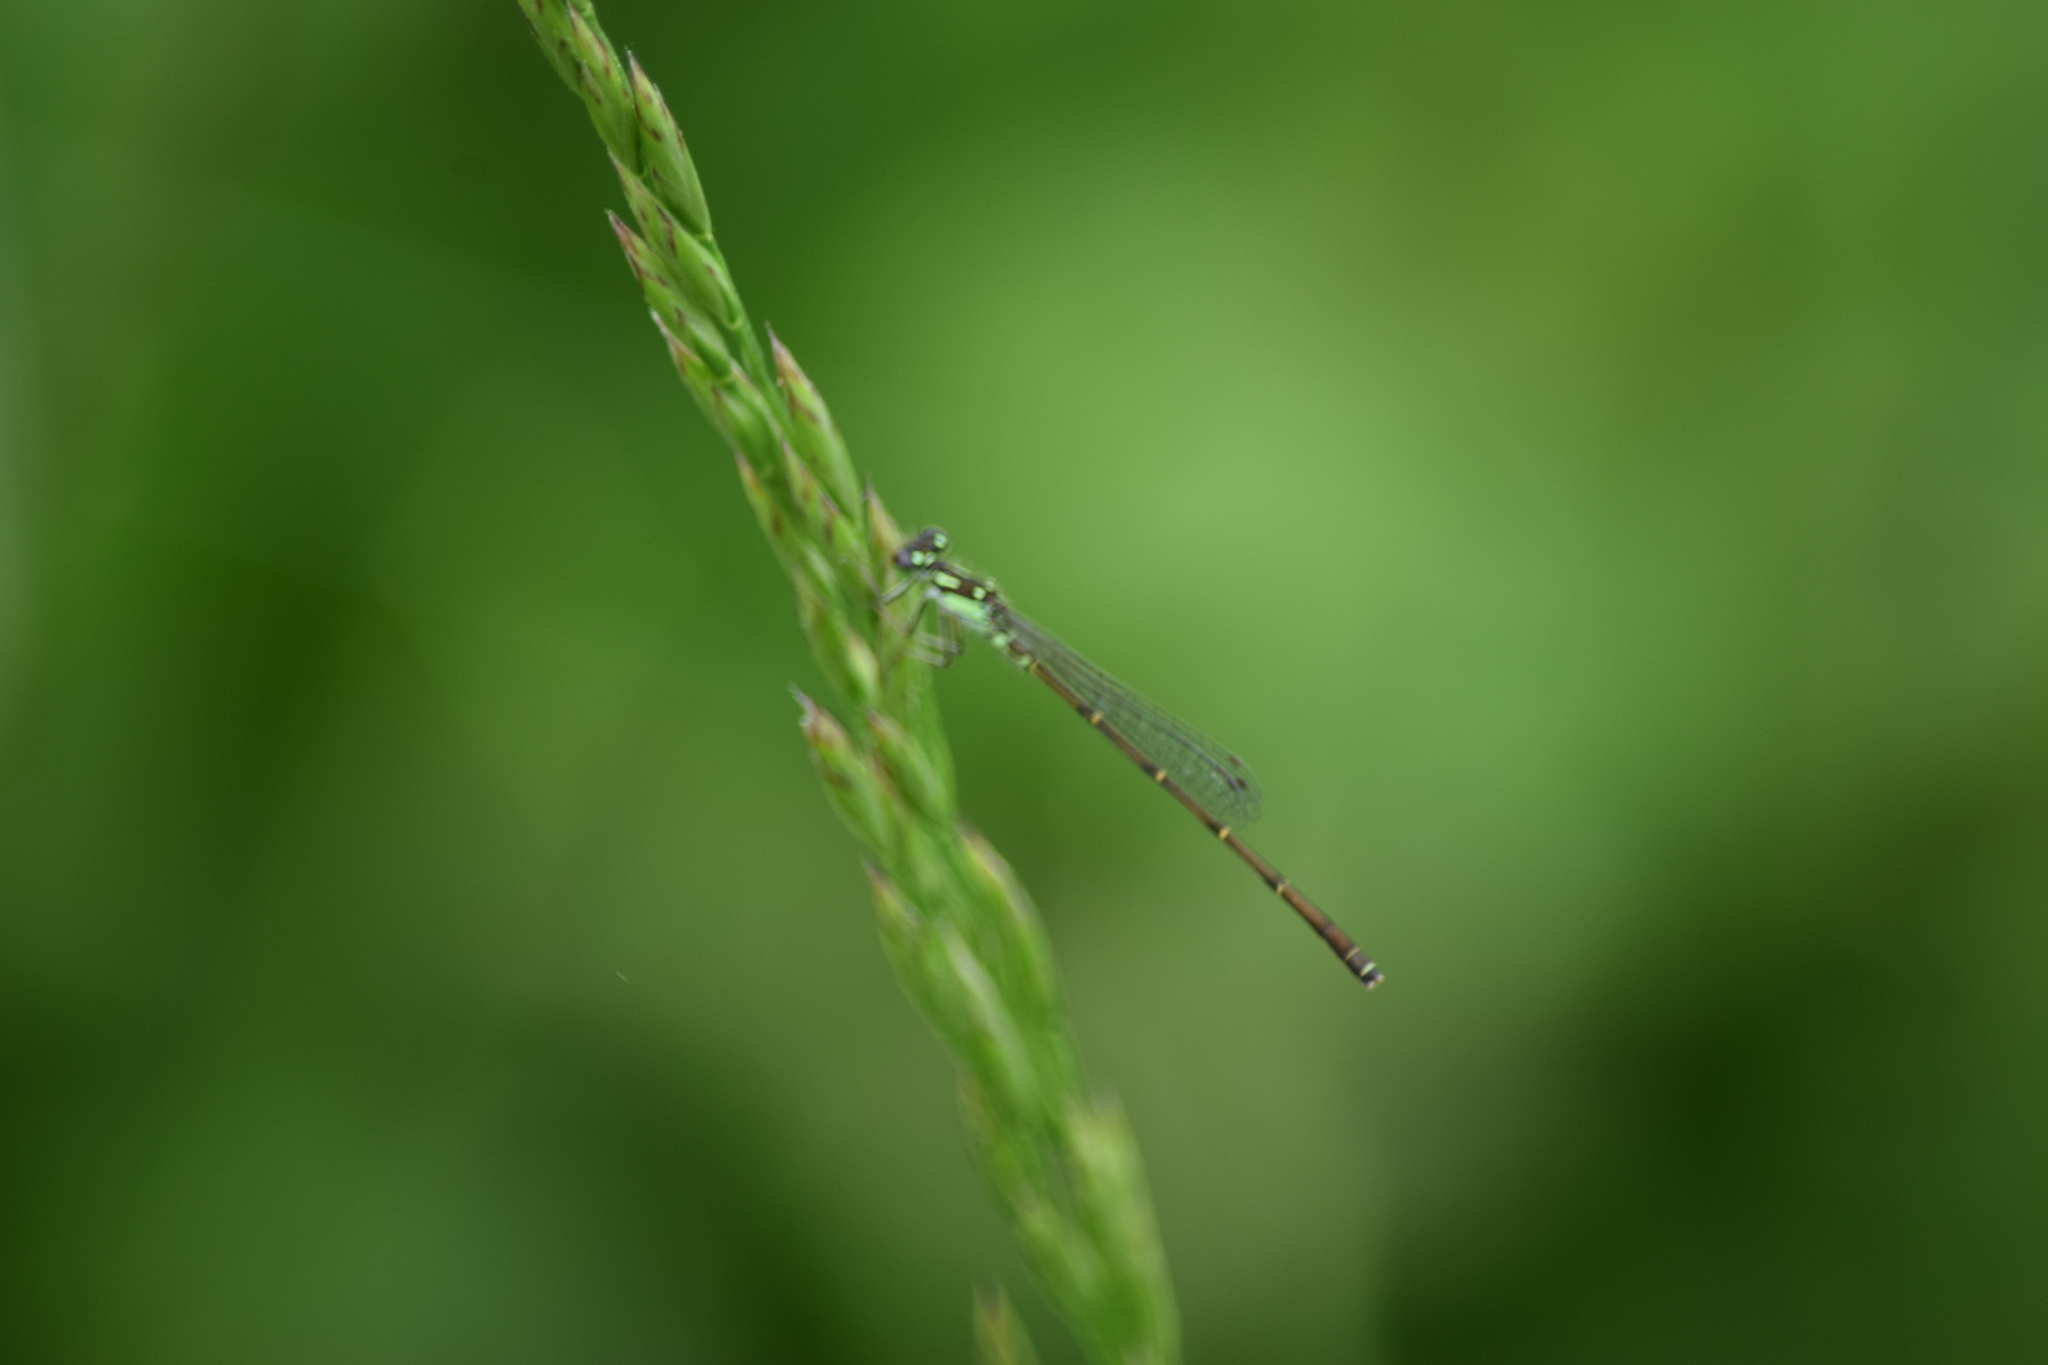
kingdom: Animalia
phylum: Arthropoda
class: Insecta
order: Odonata
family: Coenagrionidae
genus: Ischnura
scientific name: Ischnura posita
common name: Fragile forktail
